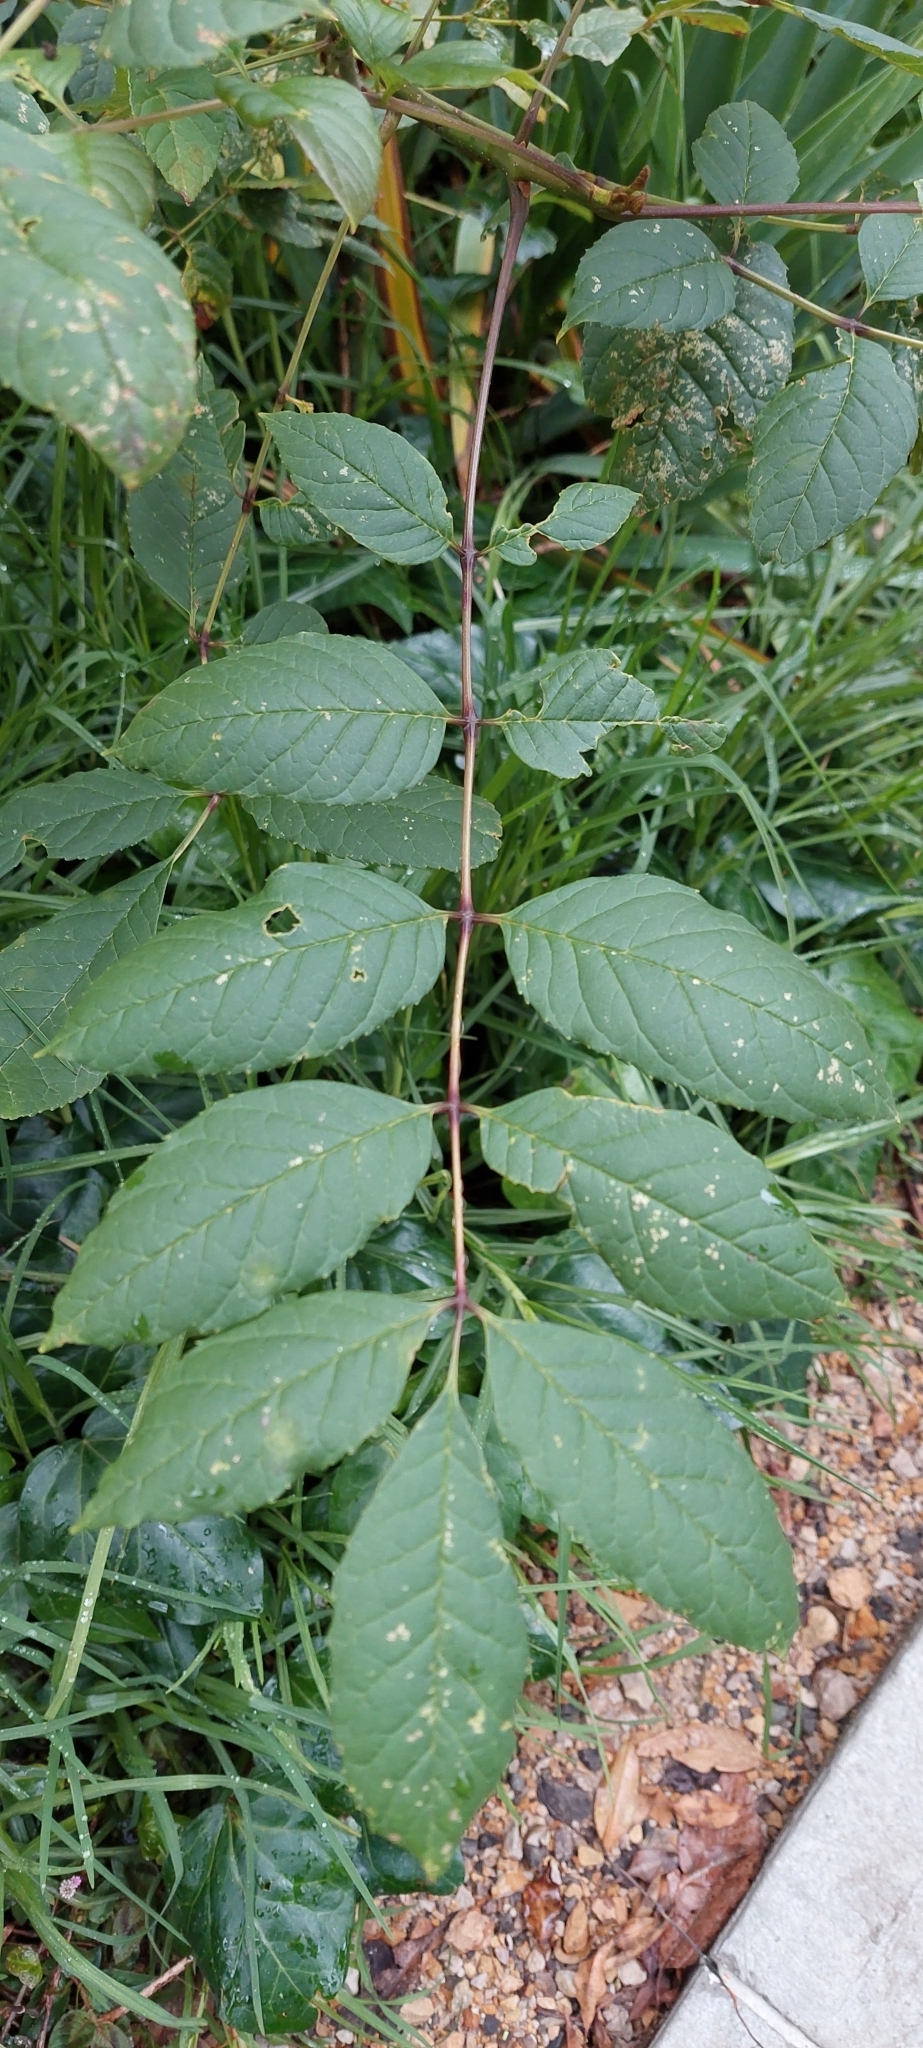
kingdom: Plantae
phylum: Tracheophyta
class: Magnoliopsida
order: Lamiales
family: Oleaceae
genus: Fraxinus
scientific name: Fraxinus uhdei
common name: Shamel ash
